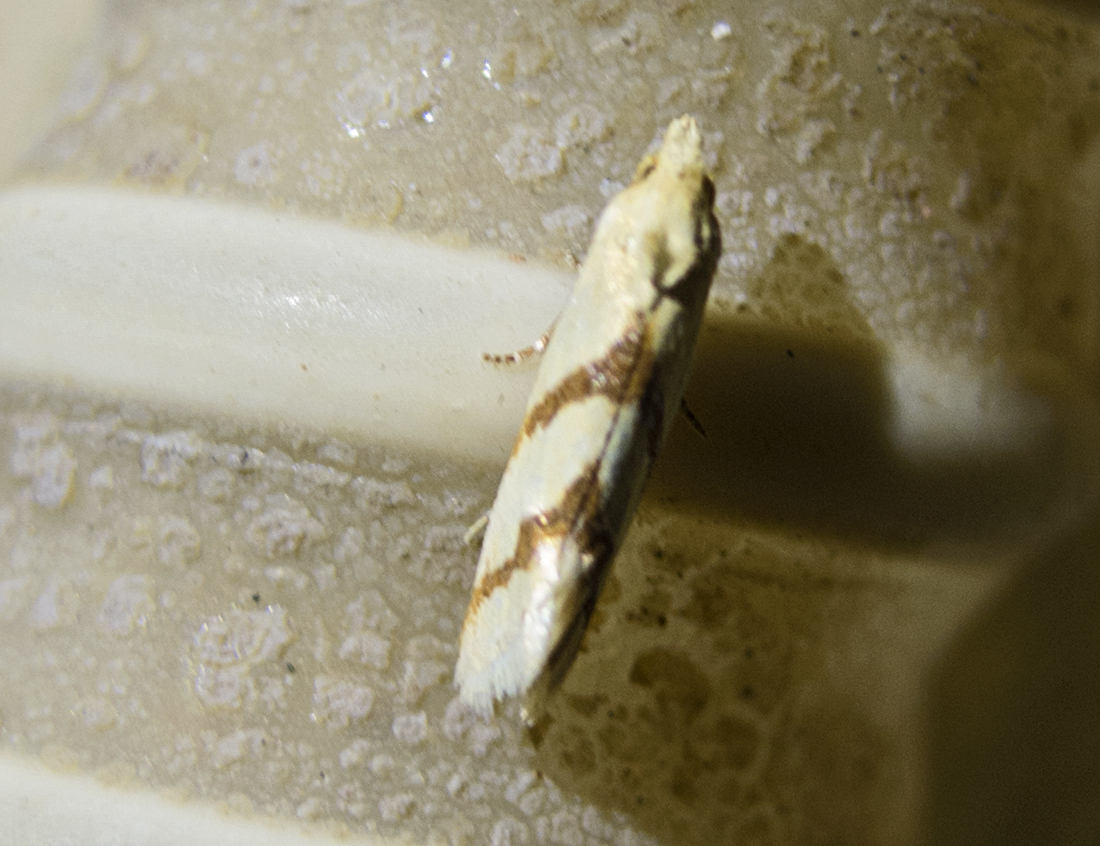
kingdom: Animalia
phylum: Arthropoda
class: Insecta
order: Lepidoptera
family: Tortricidae
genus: Aethes
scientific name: Aethes
